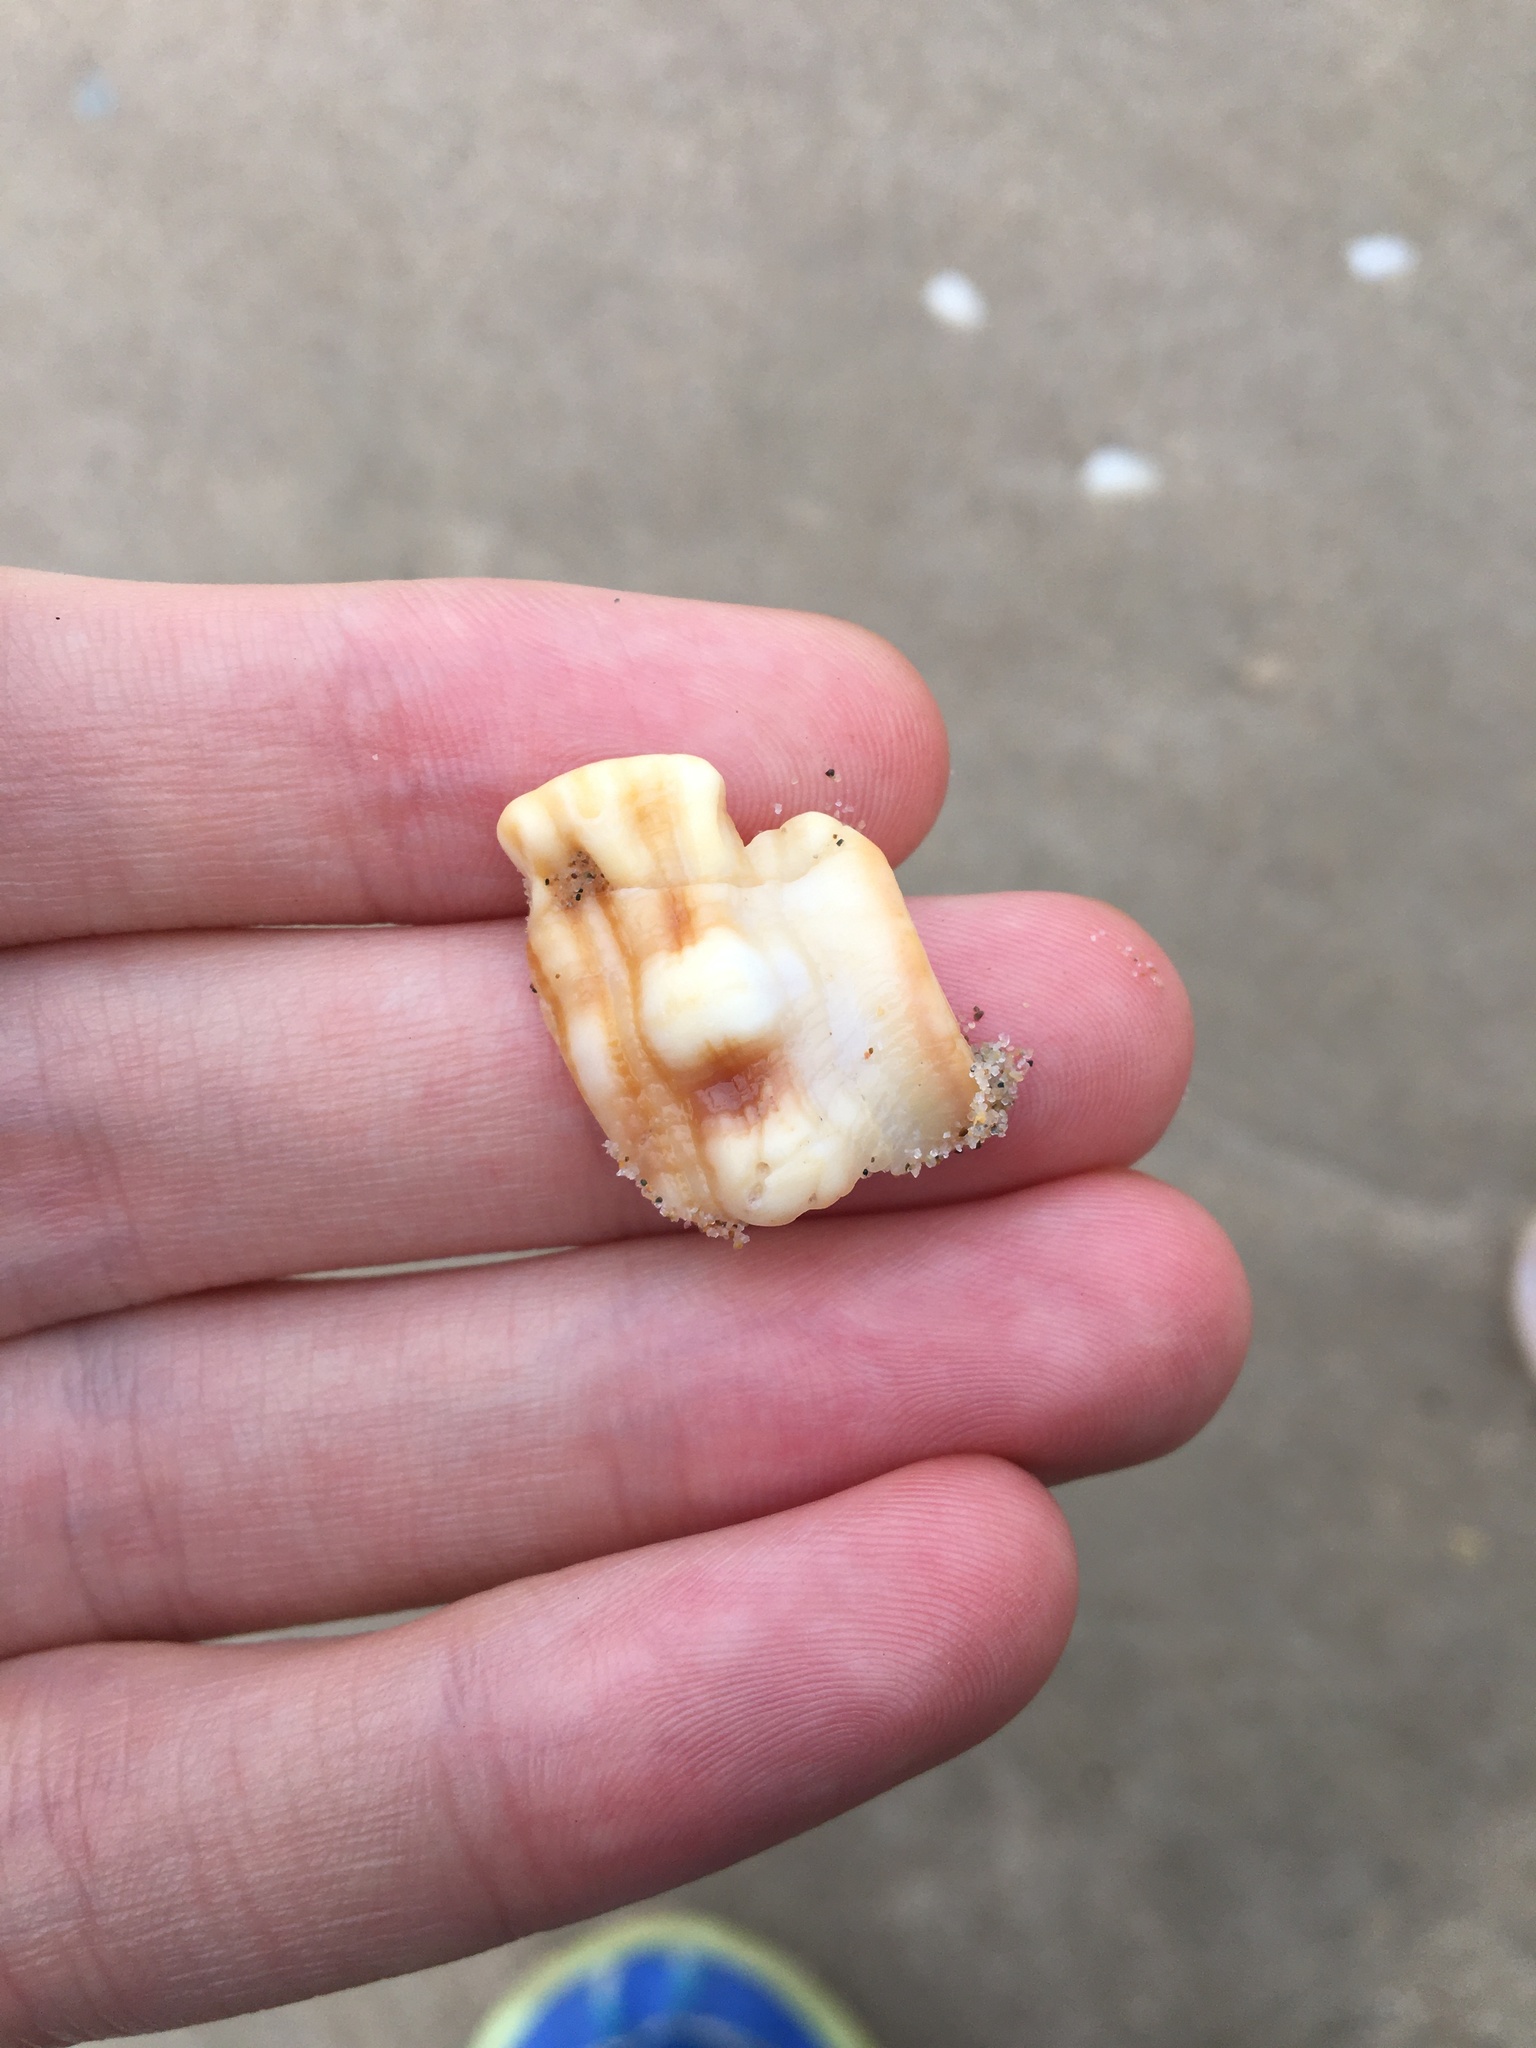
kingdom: Animalia
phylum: Mollusca
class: Gastropoda
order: Littorinimorpha
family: Cymatiidae
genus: Cabestana
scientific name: Cabestana spengleri
